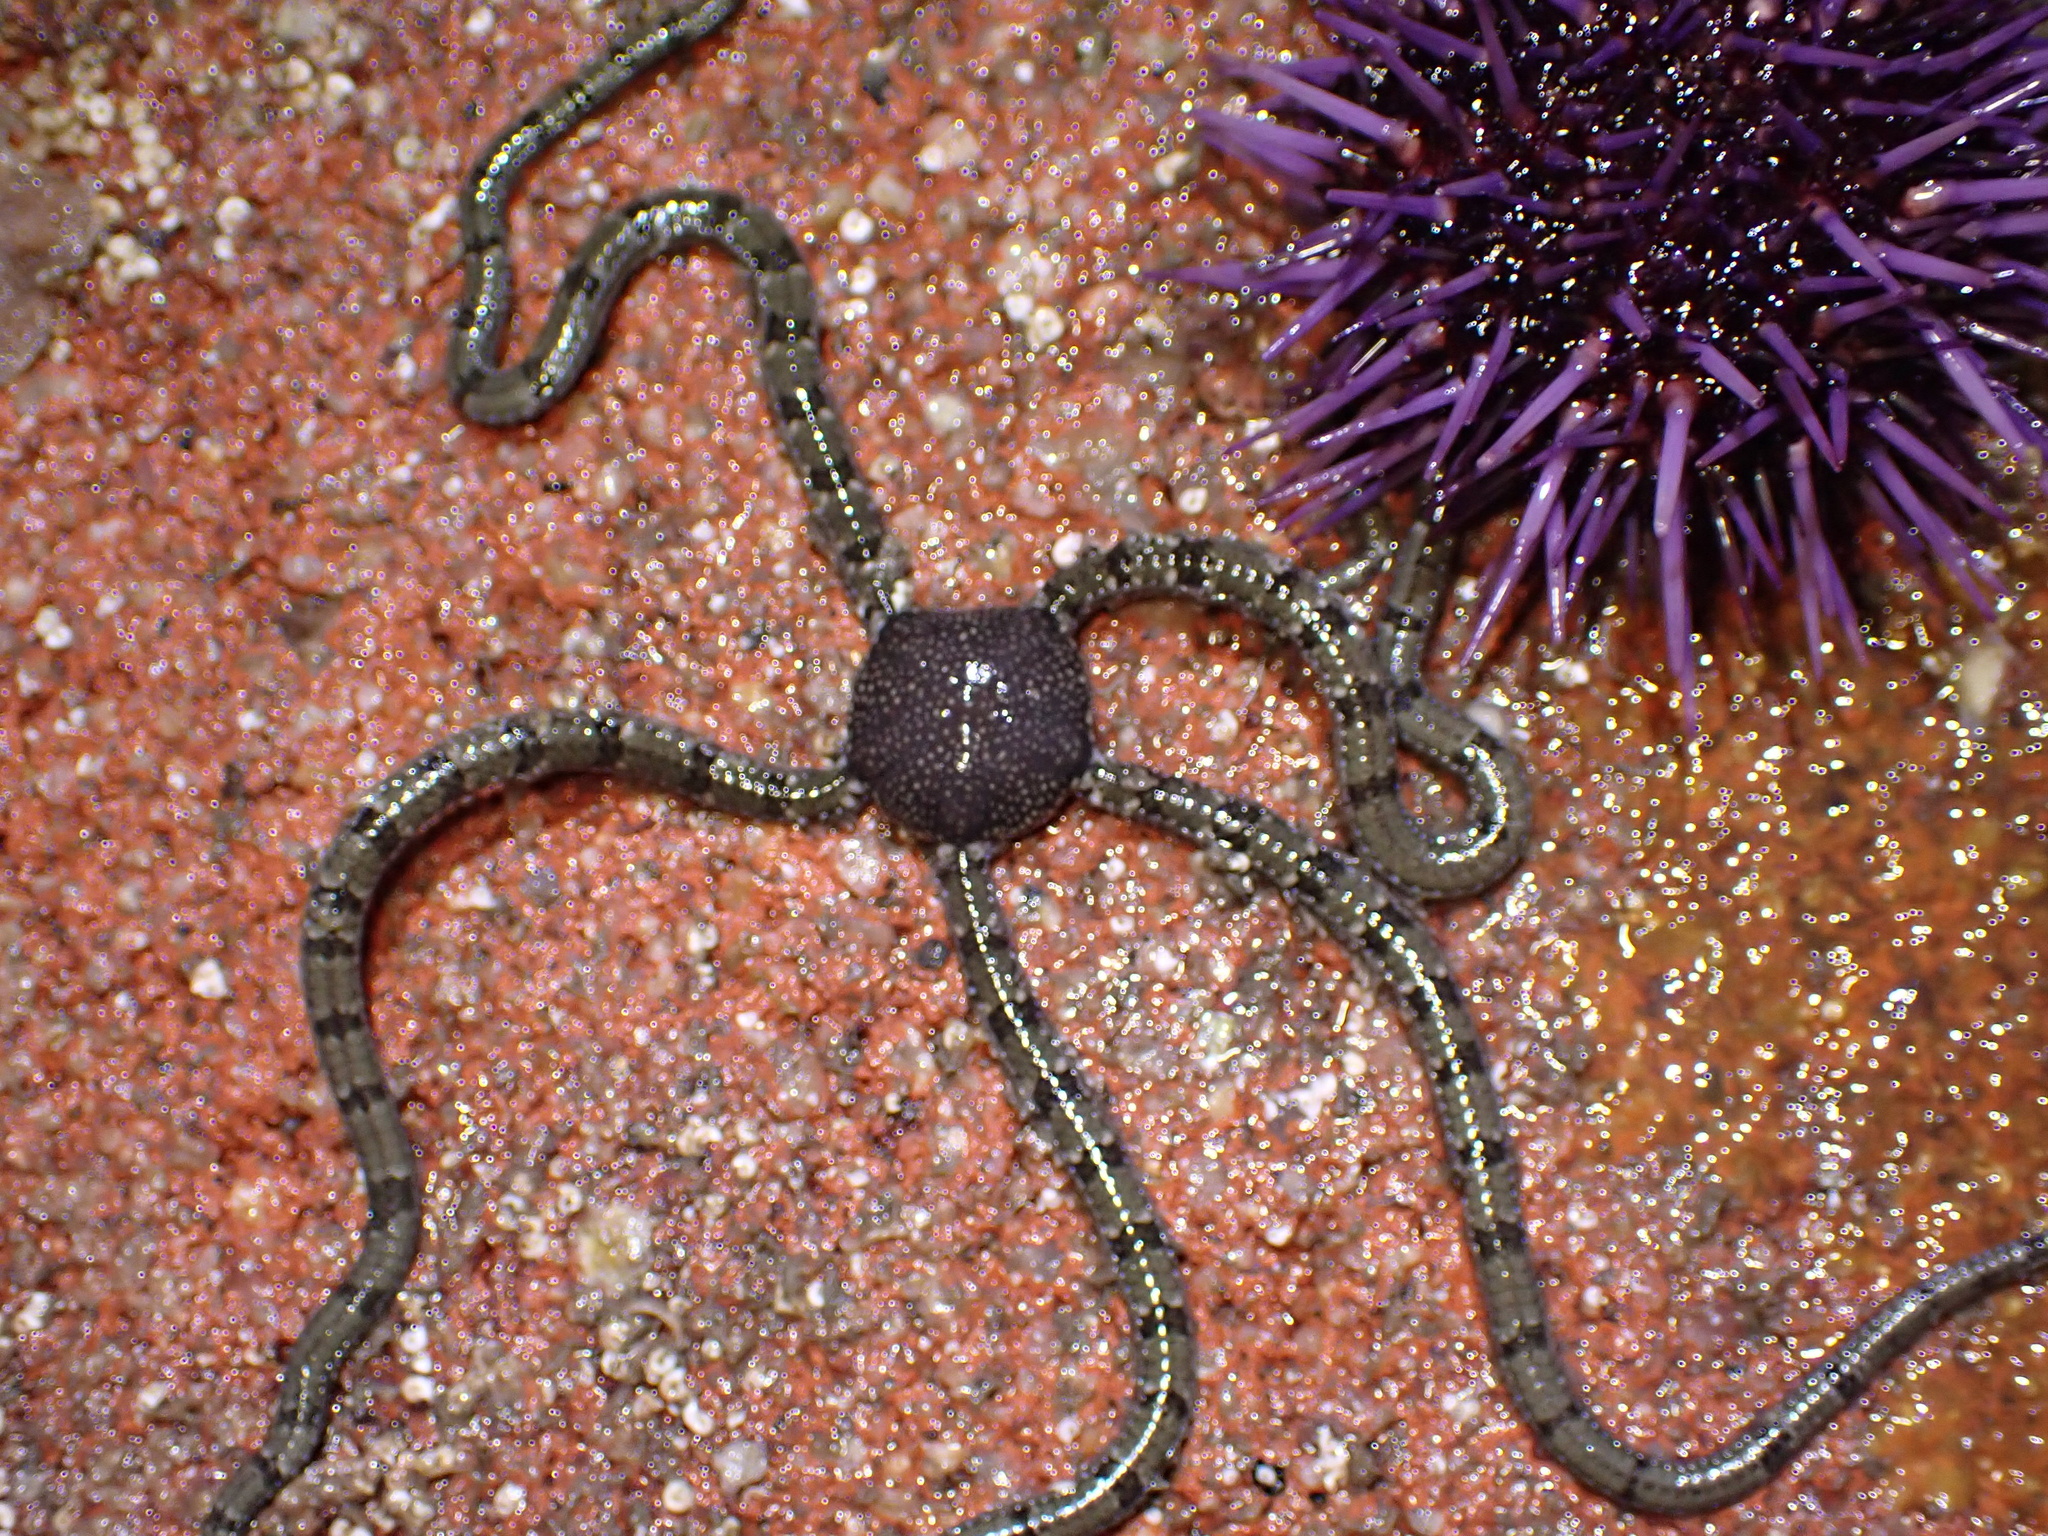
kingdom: Animalia
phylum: Echinodermata
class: Ophiuroidea
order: Amphilepidida
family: Ophionereididae
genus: Ophionereis
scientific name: Ophionereis annulata
